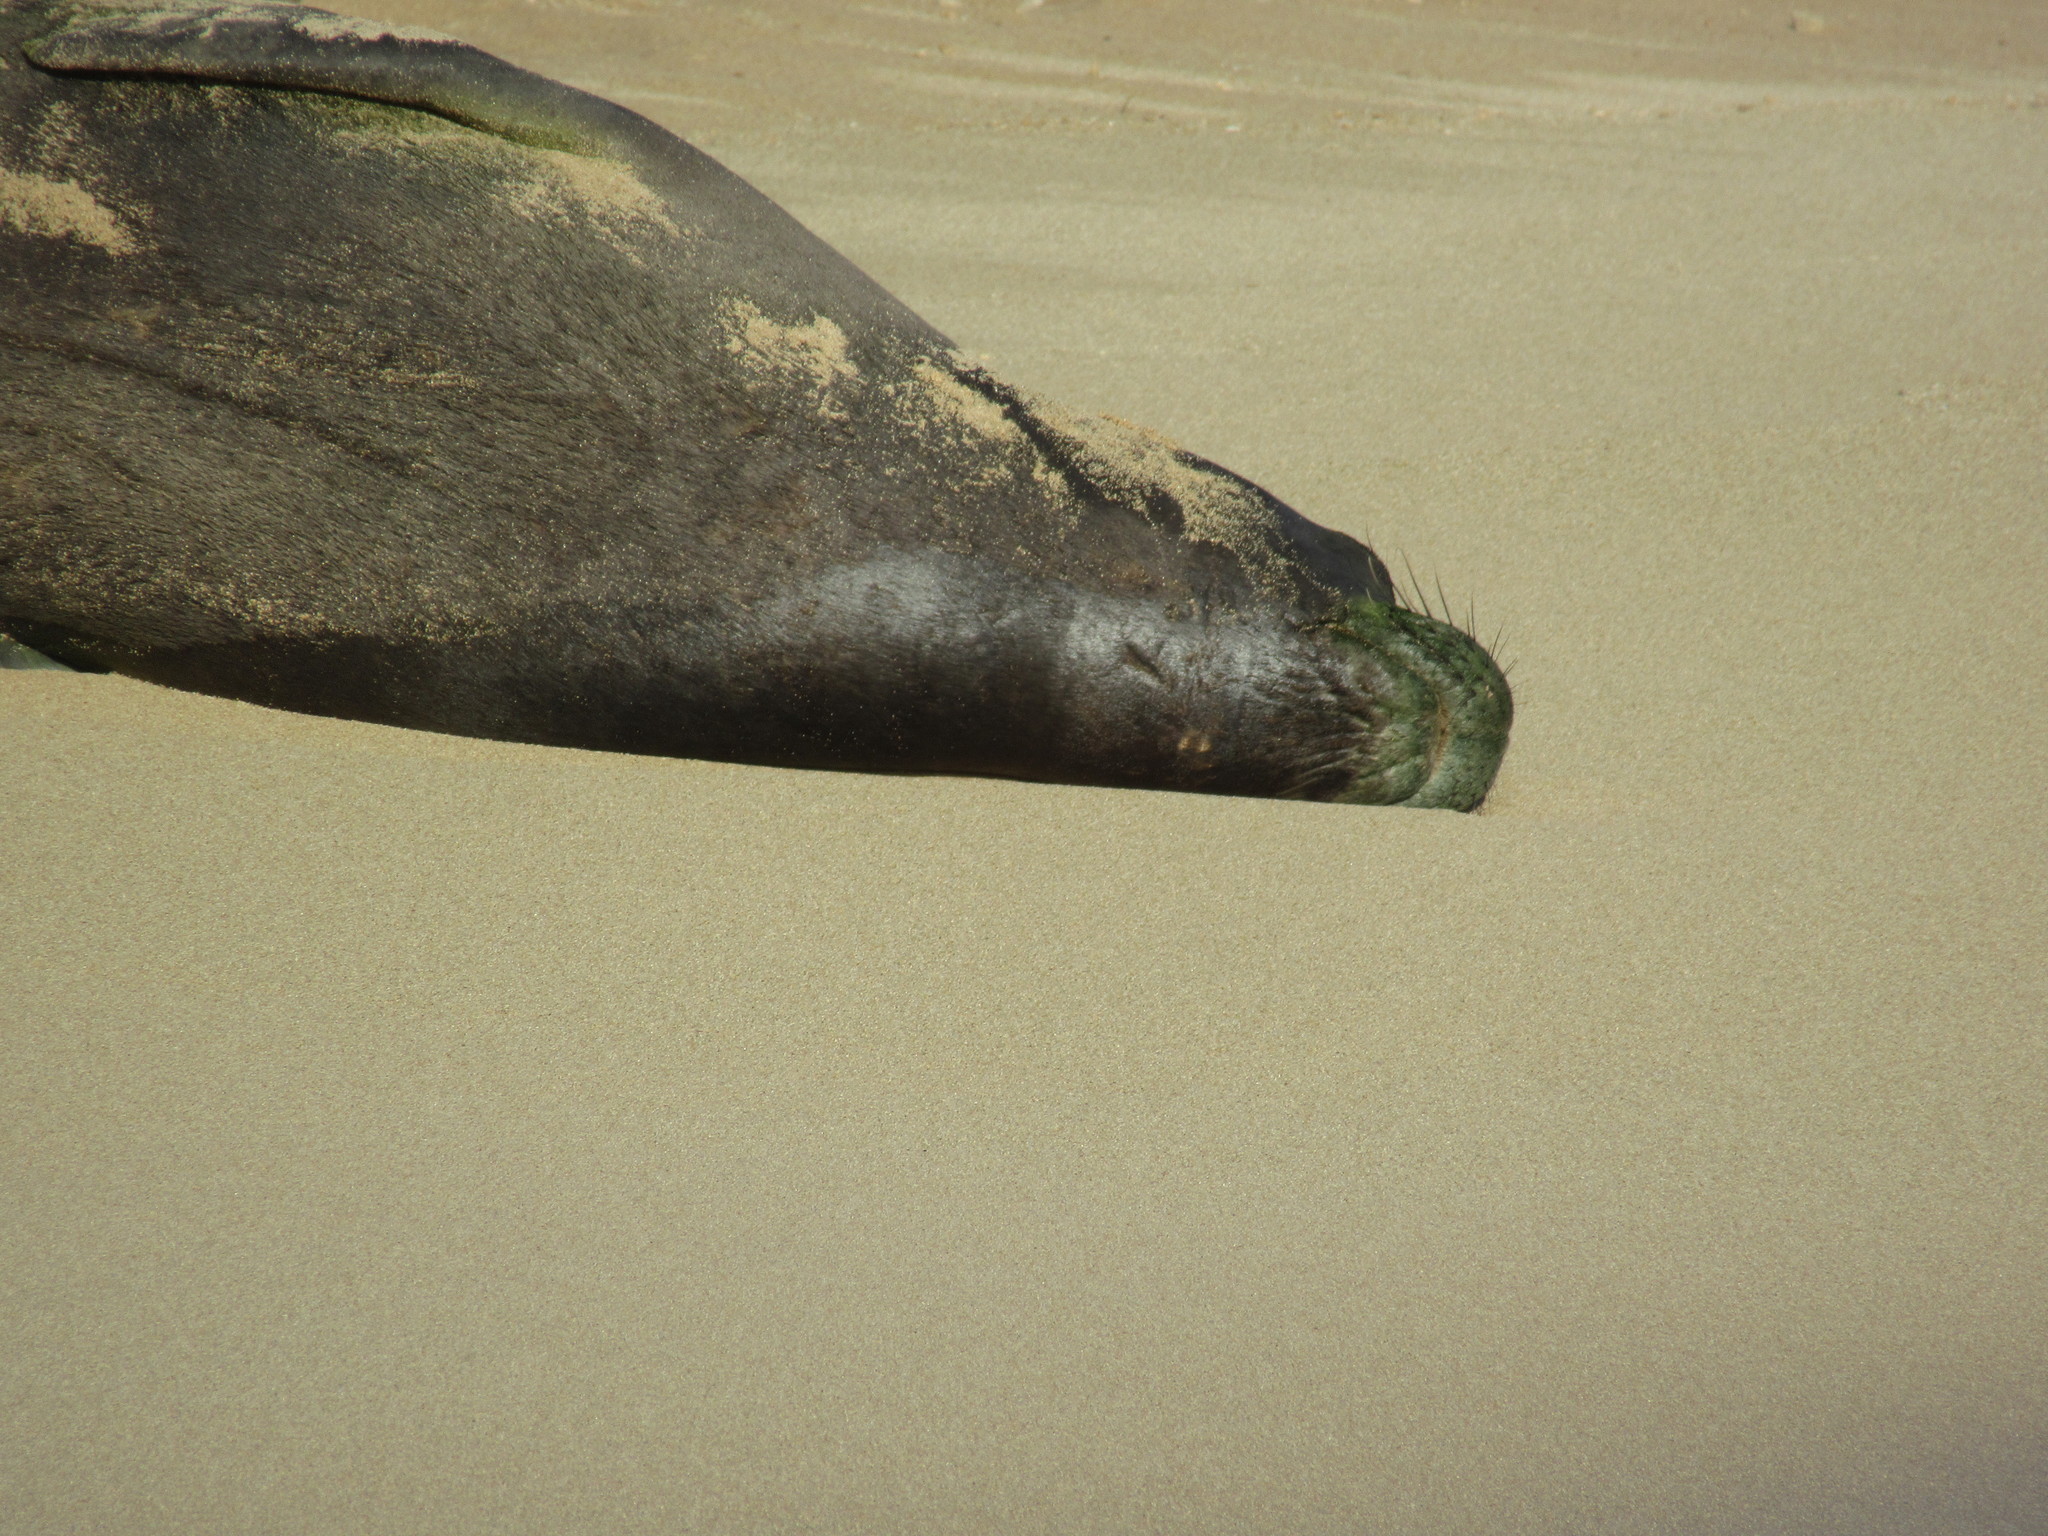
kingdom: Animalia
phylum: Chordata
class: Mammalia
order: Carnivora
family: Phocidae
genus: Neomonachus
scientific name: Neomonachus schauinslandi
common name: Hawaiian monk seal
